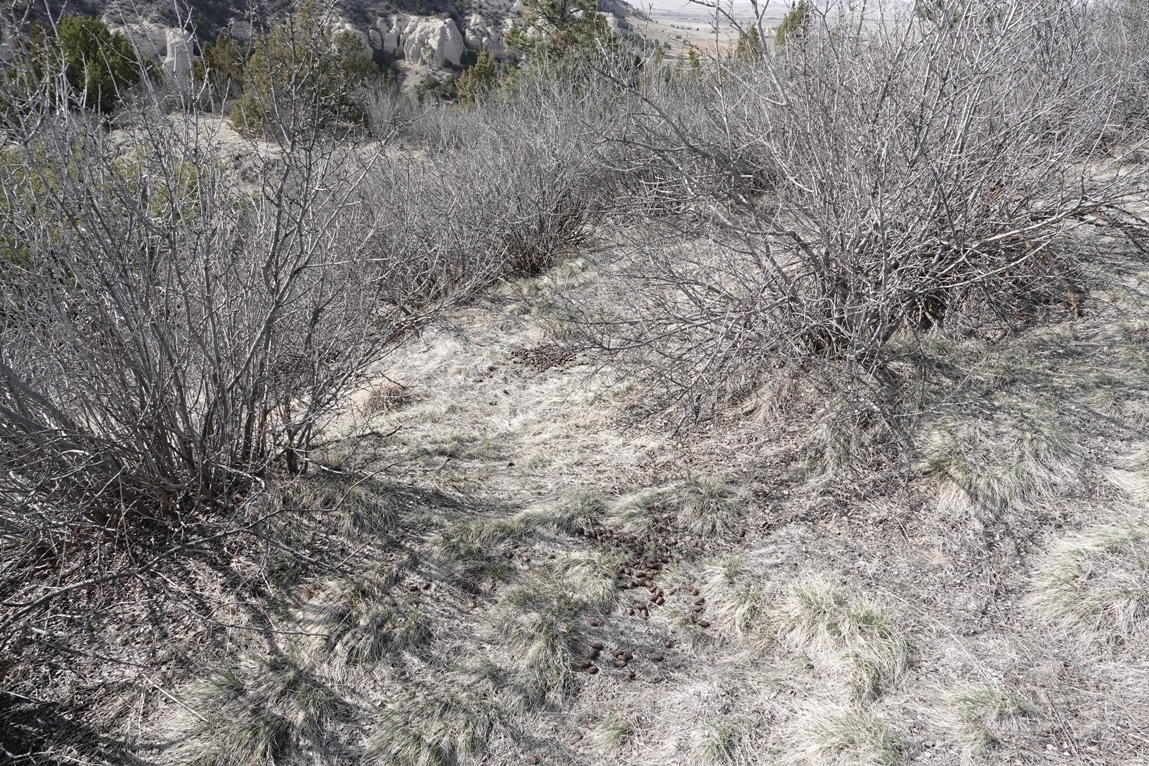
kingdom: Animalia
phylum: Chordata
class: Mammalia
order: Artiodactyla
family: Cervidae
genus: Alces
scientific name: Alces alces
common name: Moose
